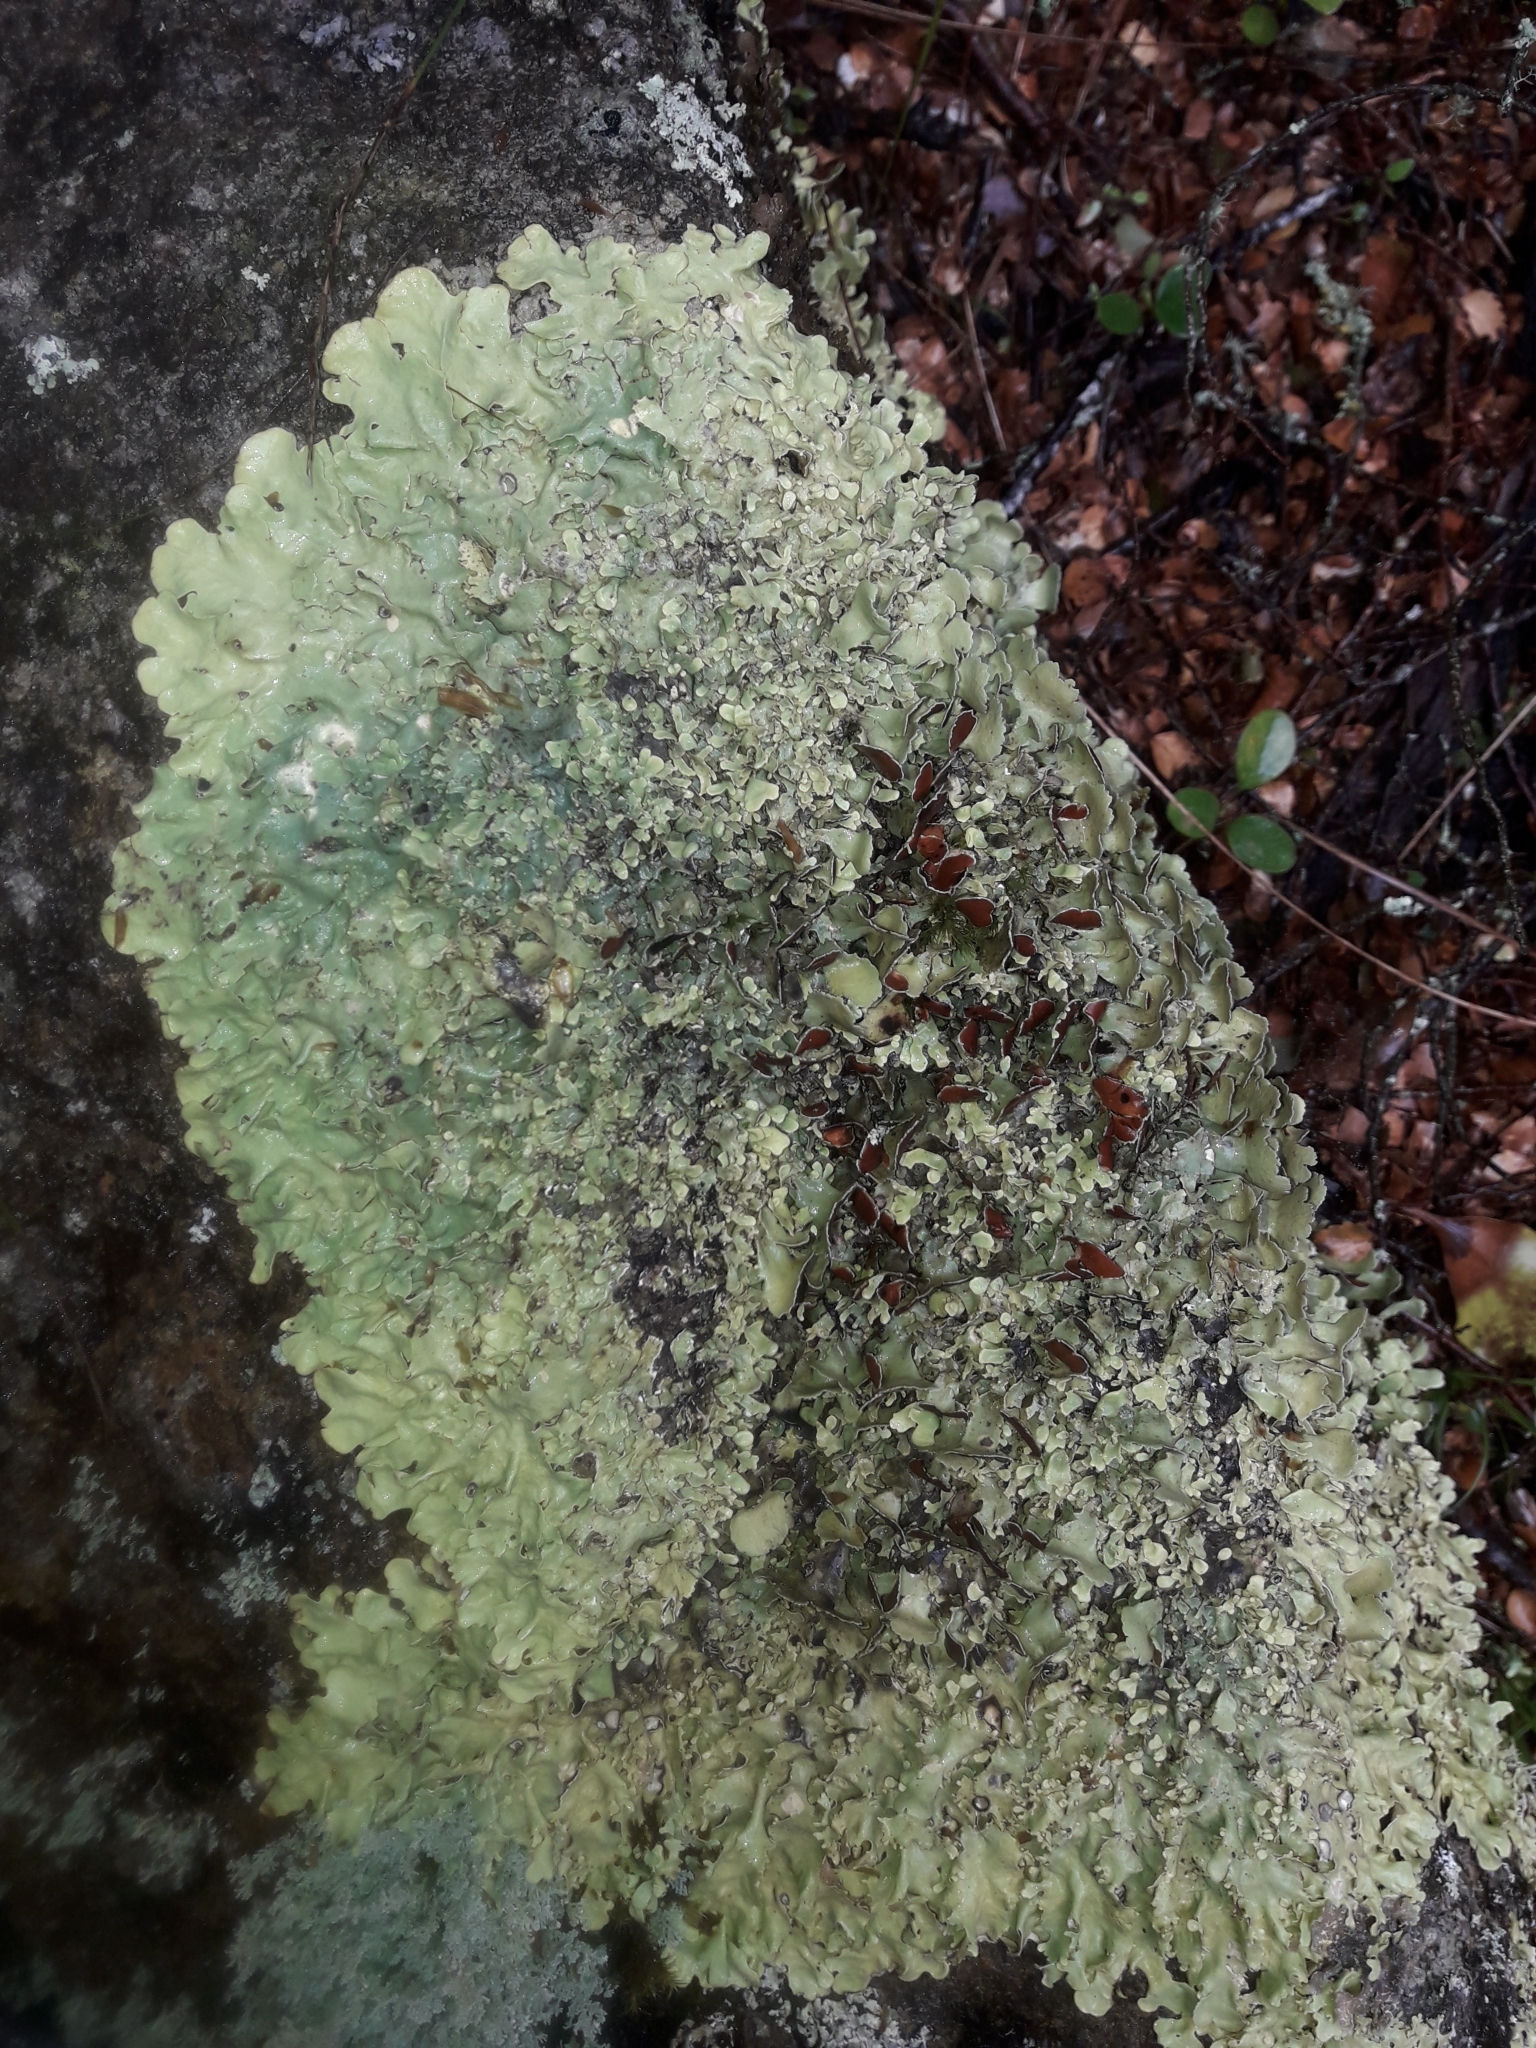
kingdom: Fungi
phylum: Ascomycota
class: Lecanoromycetes
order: Peltigerales
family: Nephromataceae
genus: Nephroma
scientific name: Nephroma australe
